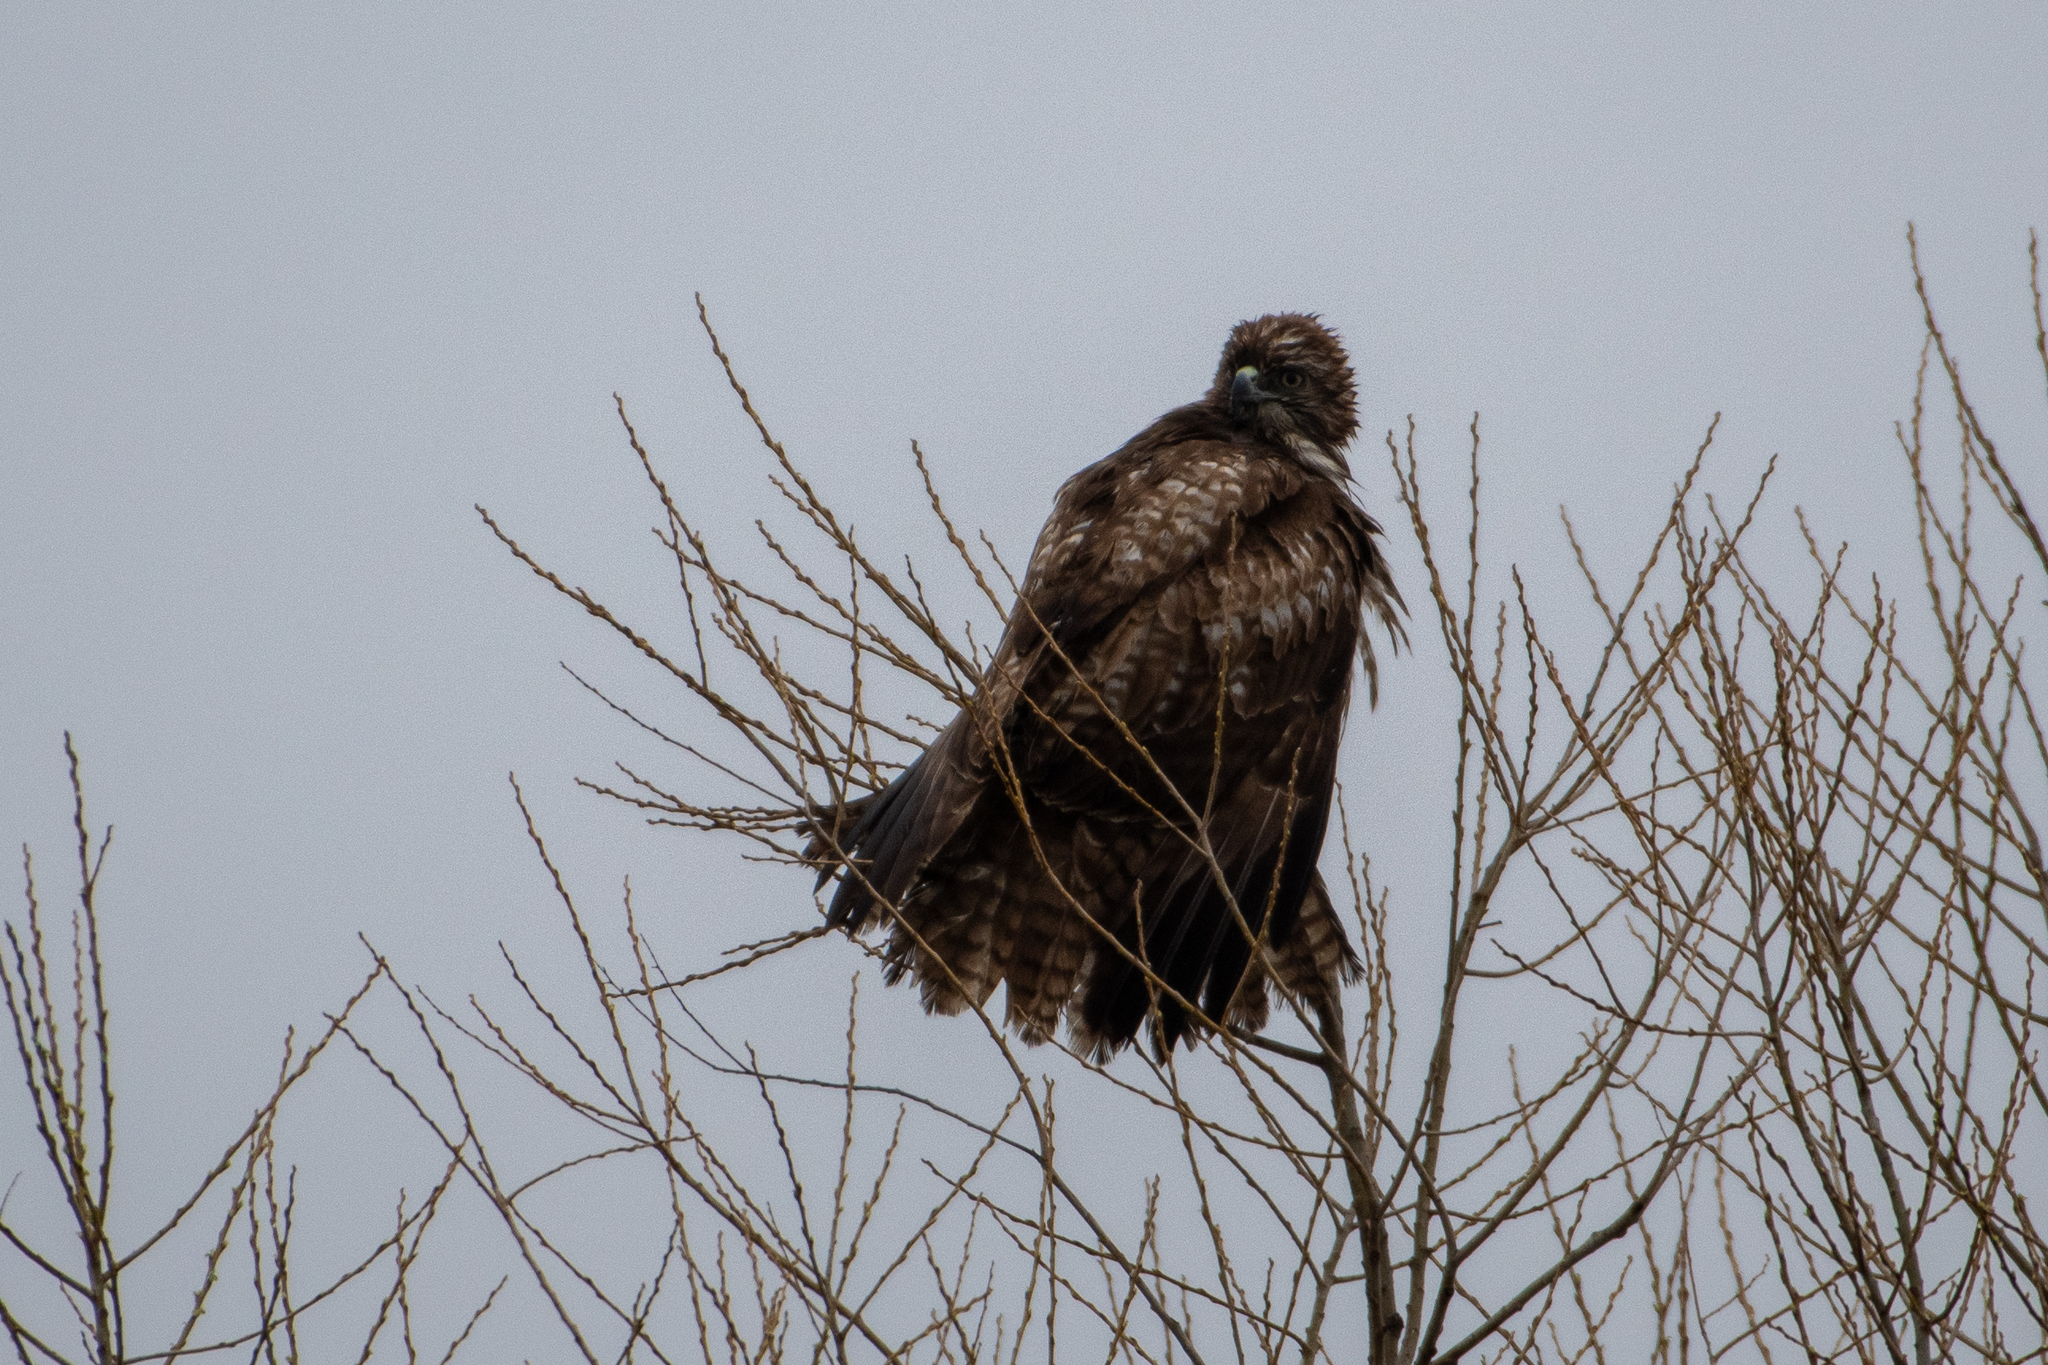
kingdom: Animalia
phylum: Chordata
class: Aves
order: Accipitriformes
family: Accipitridae
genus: Buteo
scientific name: Buteo jamaicensis
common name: Red-tailed hawk
